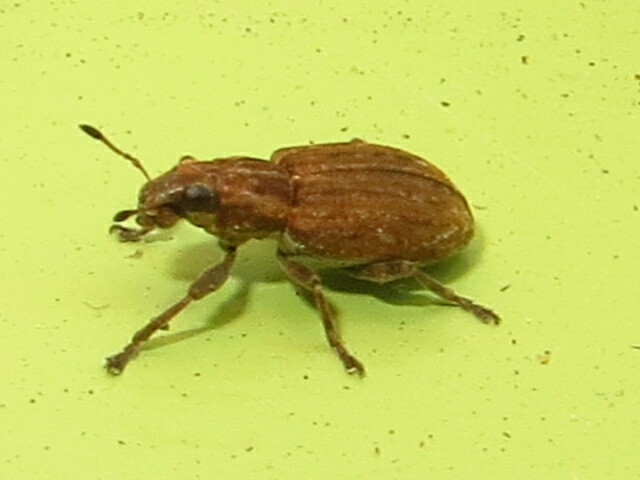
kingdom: Animalia
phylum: Arthropoda
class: Insecta
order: Coleoptera
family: Curculionidae
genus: Sitona
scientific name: Sitona obsoletus
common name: Weevil
